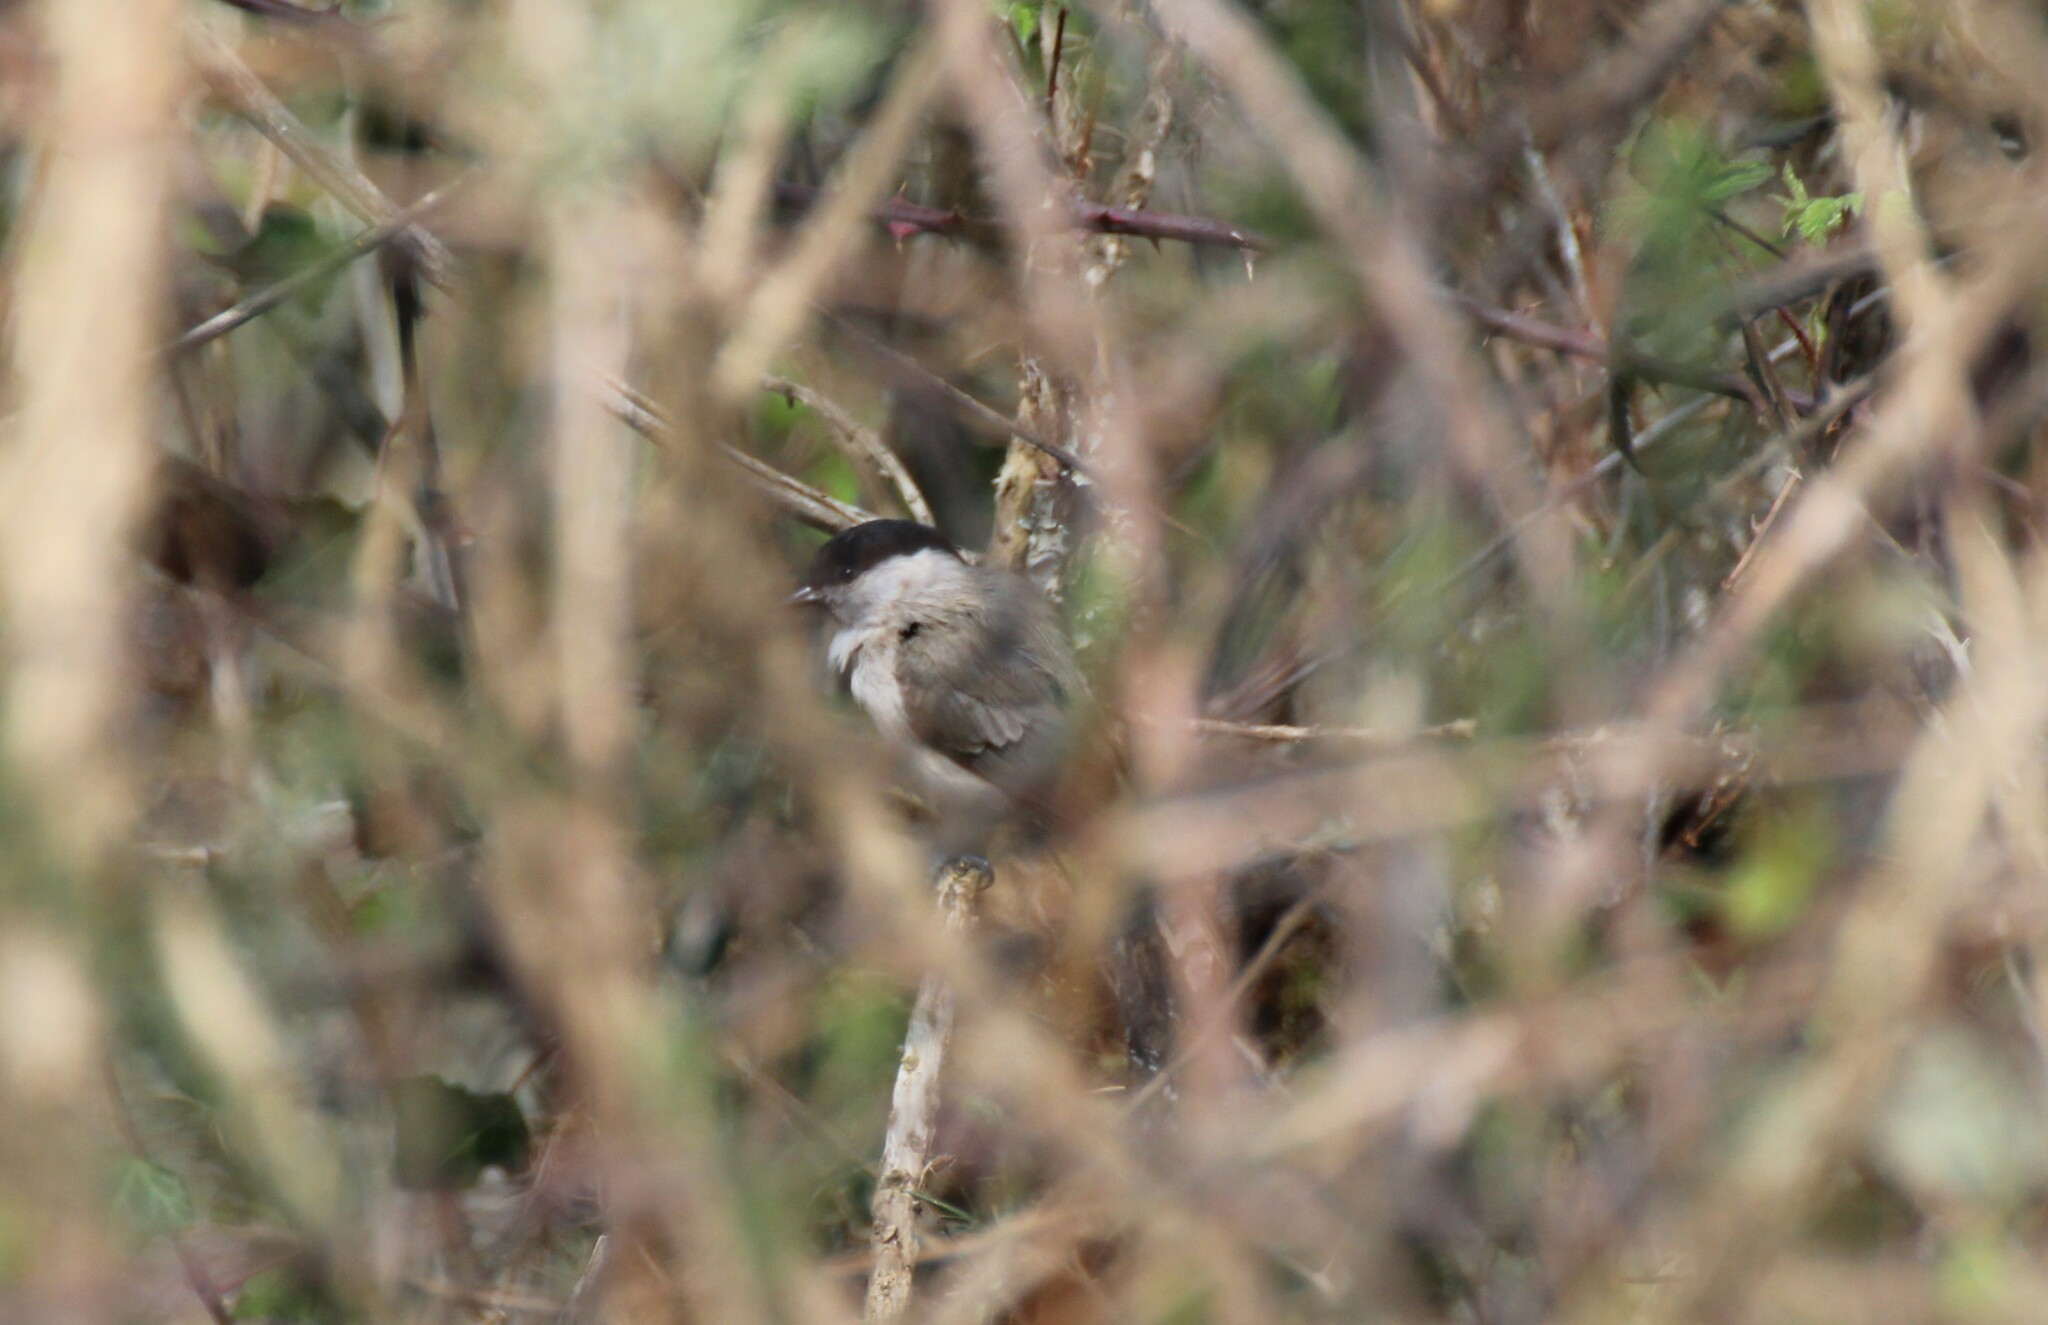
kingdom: Animalia
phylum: Chordata
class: Aves
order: Passeriformes
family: Paridae
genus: Poecile
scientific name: Poecile palustris
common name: Marsh tit
